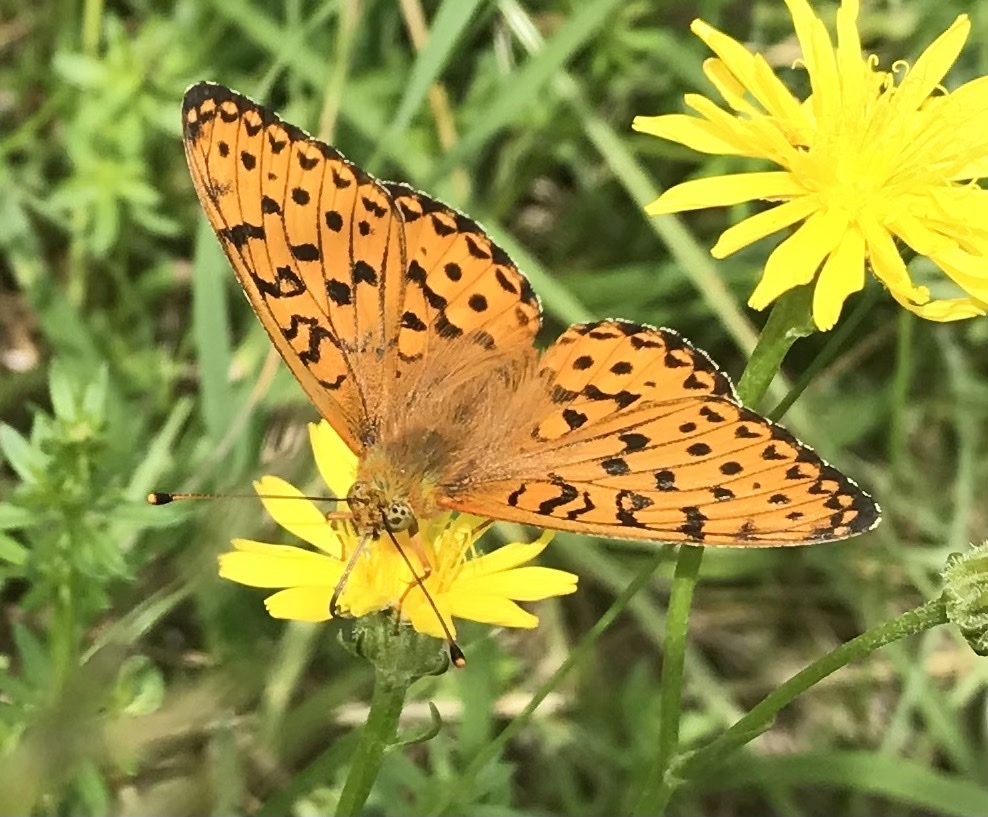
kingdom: Animalia
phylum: Arthropoda
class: Insecta
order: Lepidoptera
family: Nymphalidae
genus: Speyeria
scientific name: Speyeria aglaja
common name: Dark green fritillary
